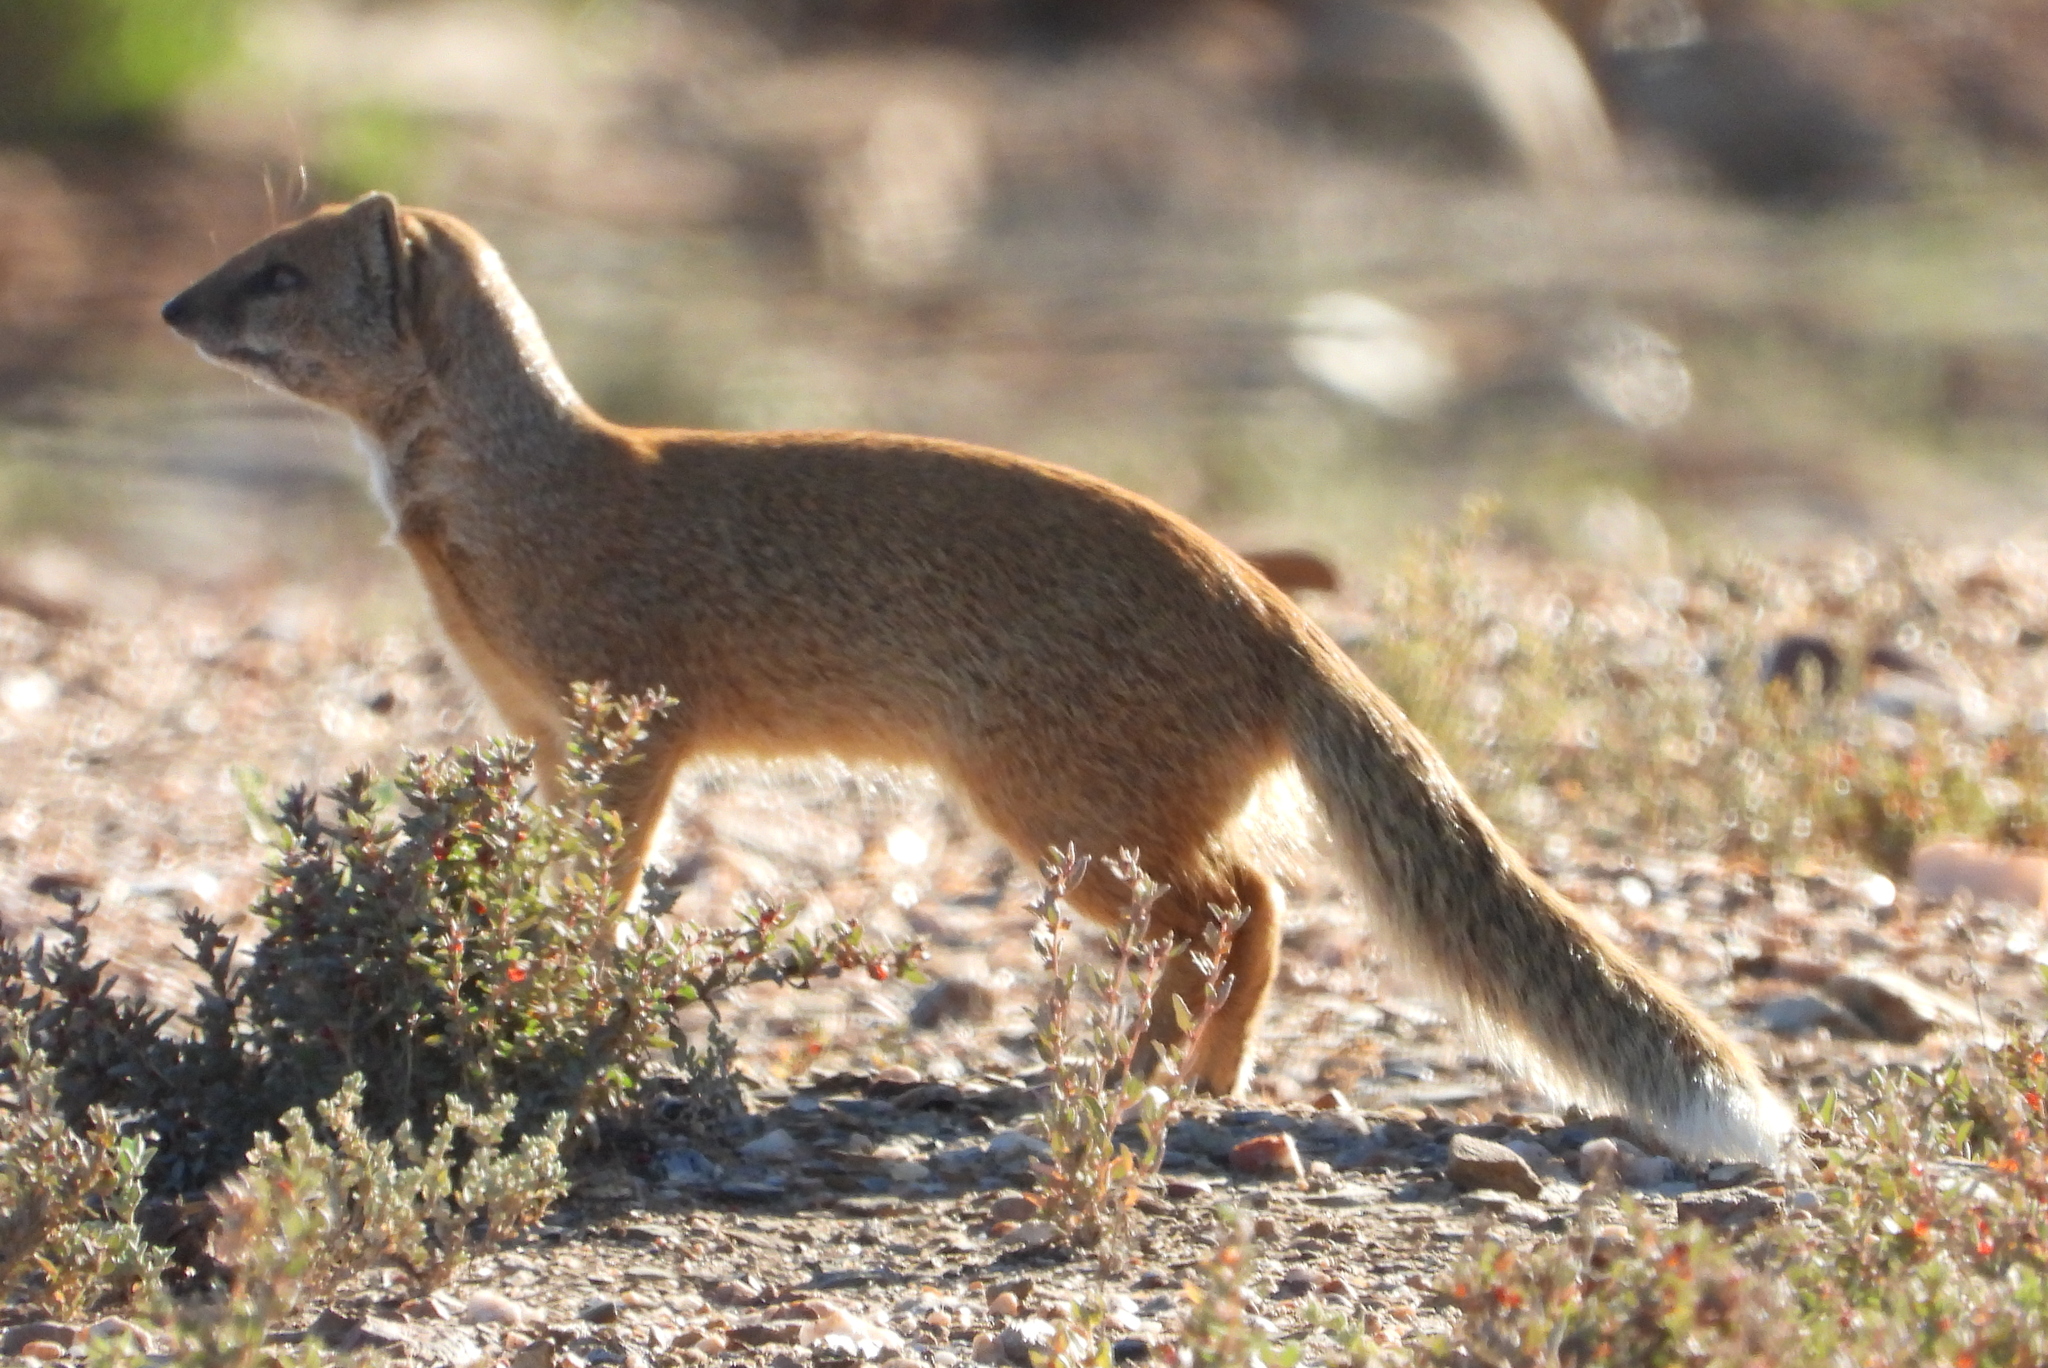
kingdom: Animalia
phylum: Chordata
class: Mammalia
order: Carnivora
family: Herpestidae
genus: Cynictis
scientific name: Cynictis penicillata
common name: Yellow mongoose
